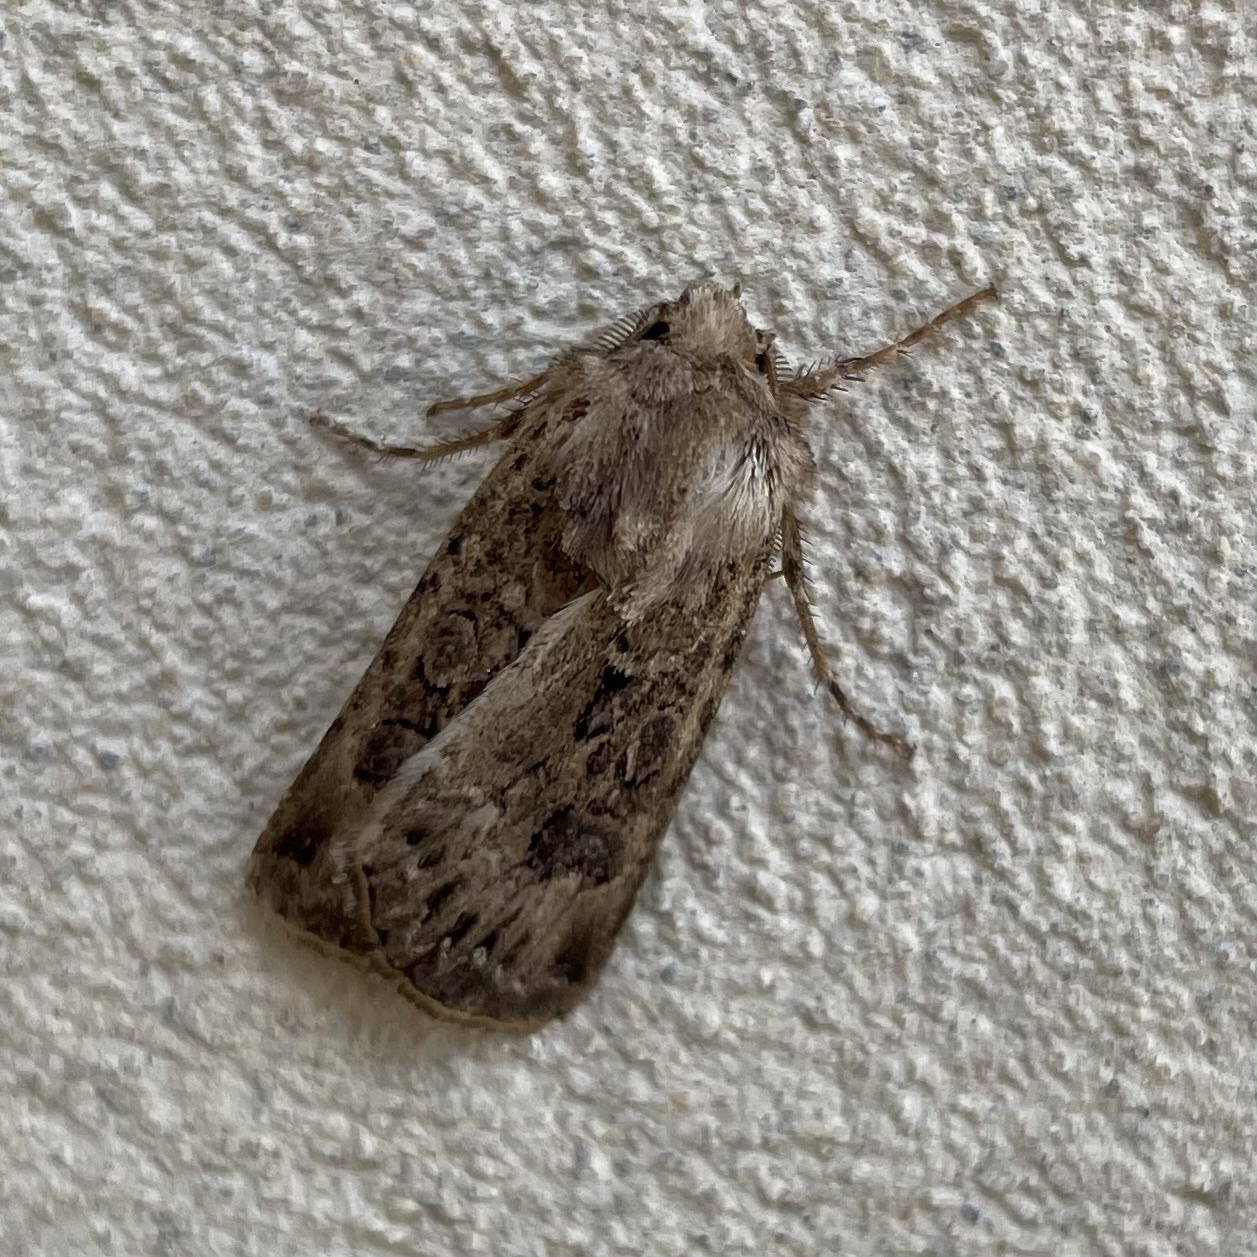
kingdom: Animalia
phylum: Arthropoda
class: Insecta
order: Lepidoptera
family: Noctuidae
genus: Agrotis
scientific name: Agrotis bigramma
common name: Great dart
